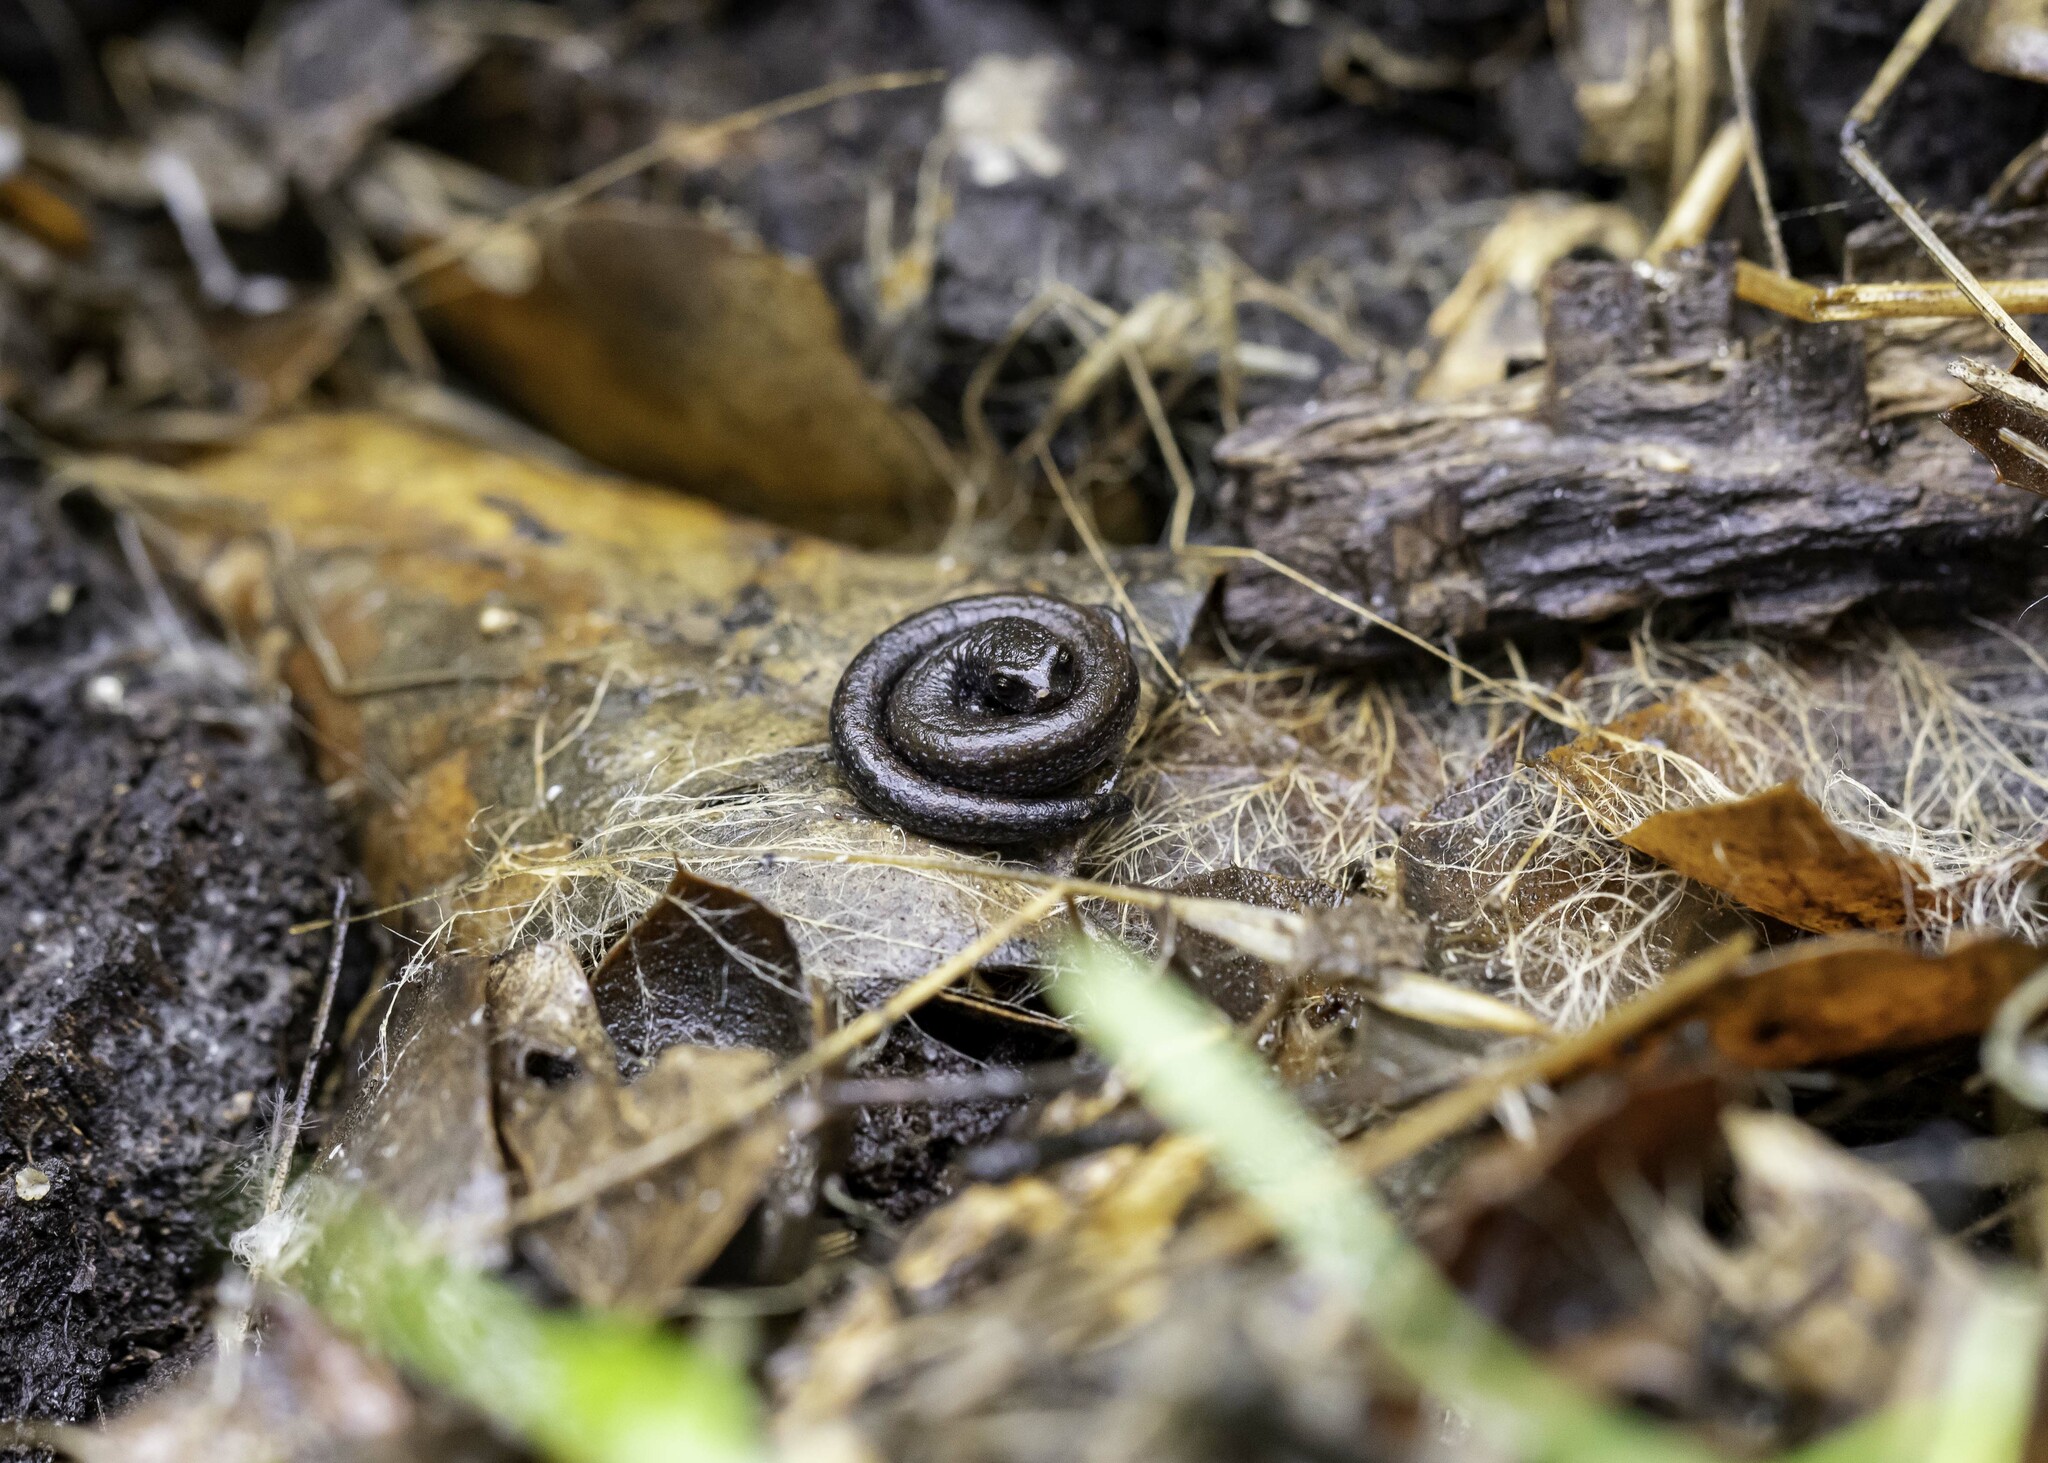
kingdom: Animalia
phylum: Chordata
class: Amphibia
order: Caudata
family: Plethodontidae
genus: Batrachoseps
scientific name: Batrachoseps nigriventris
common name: Black-bellied slender salamander
